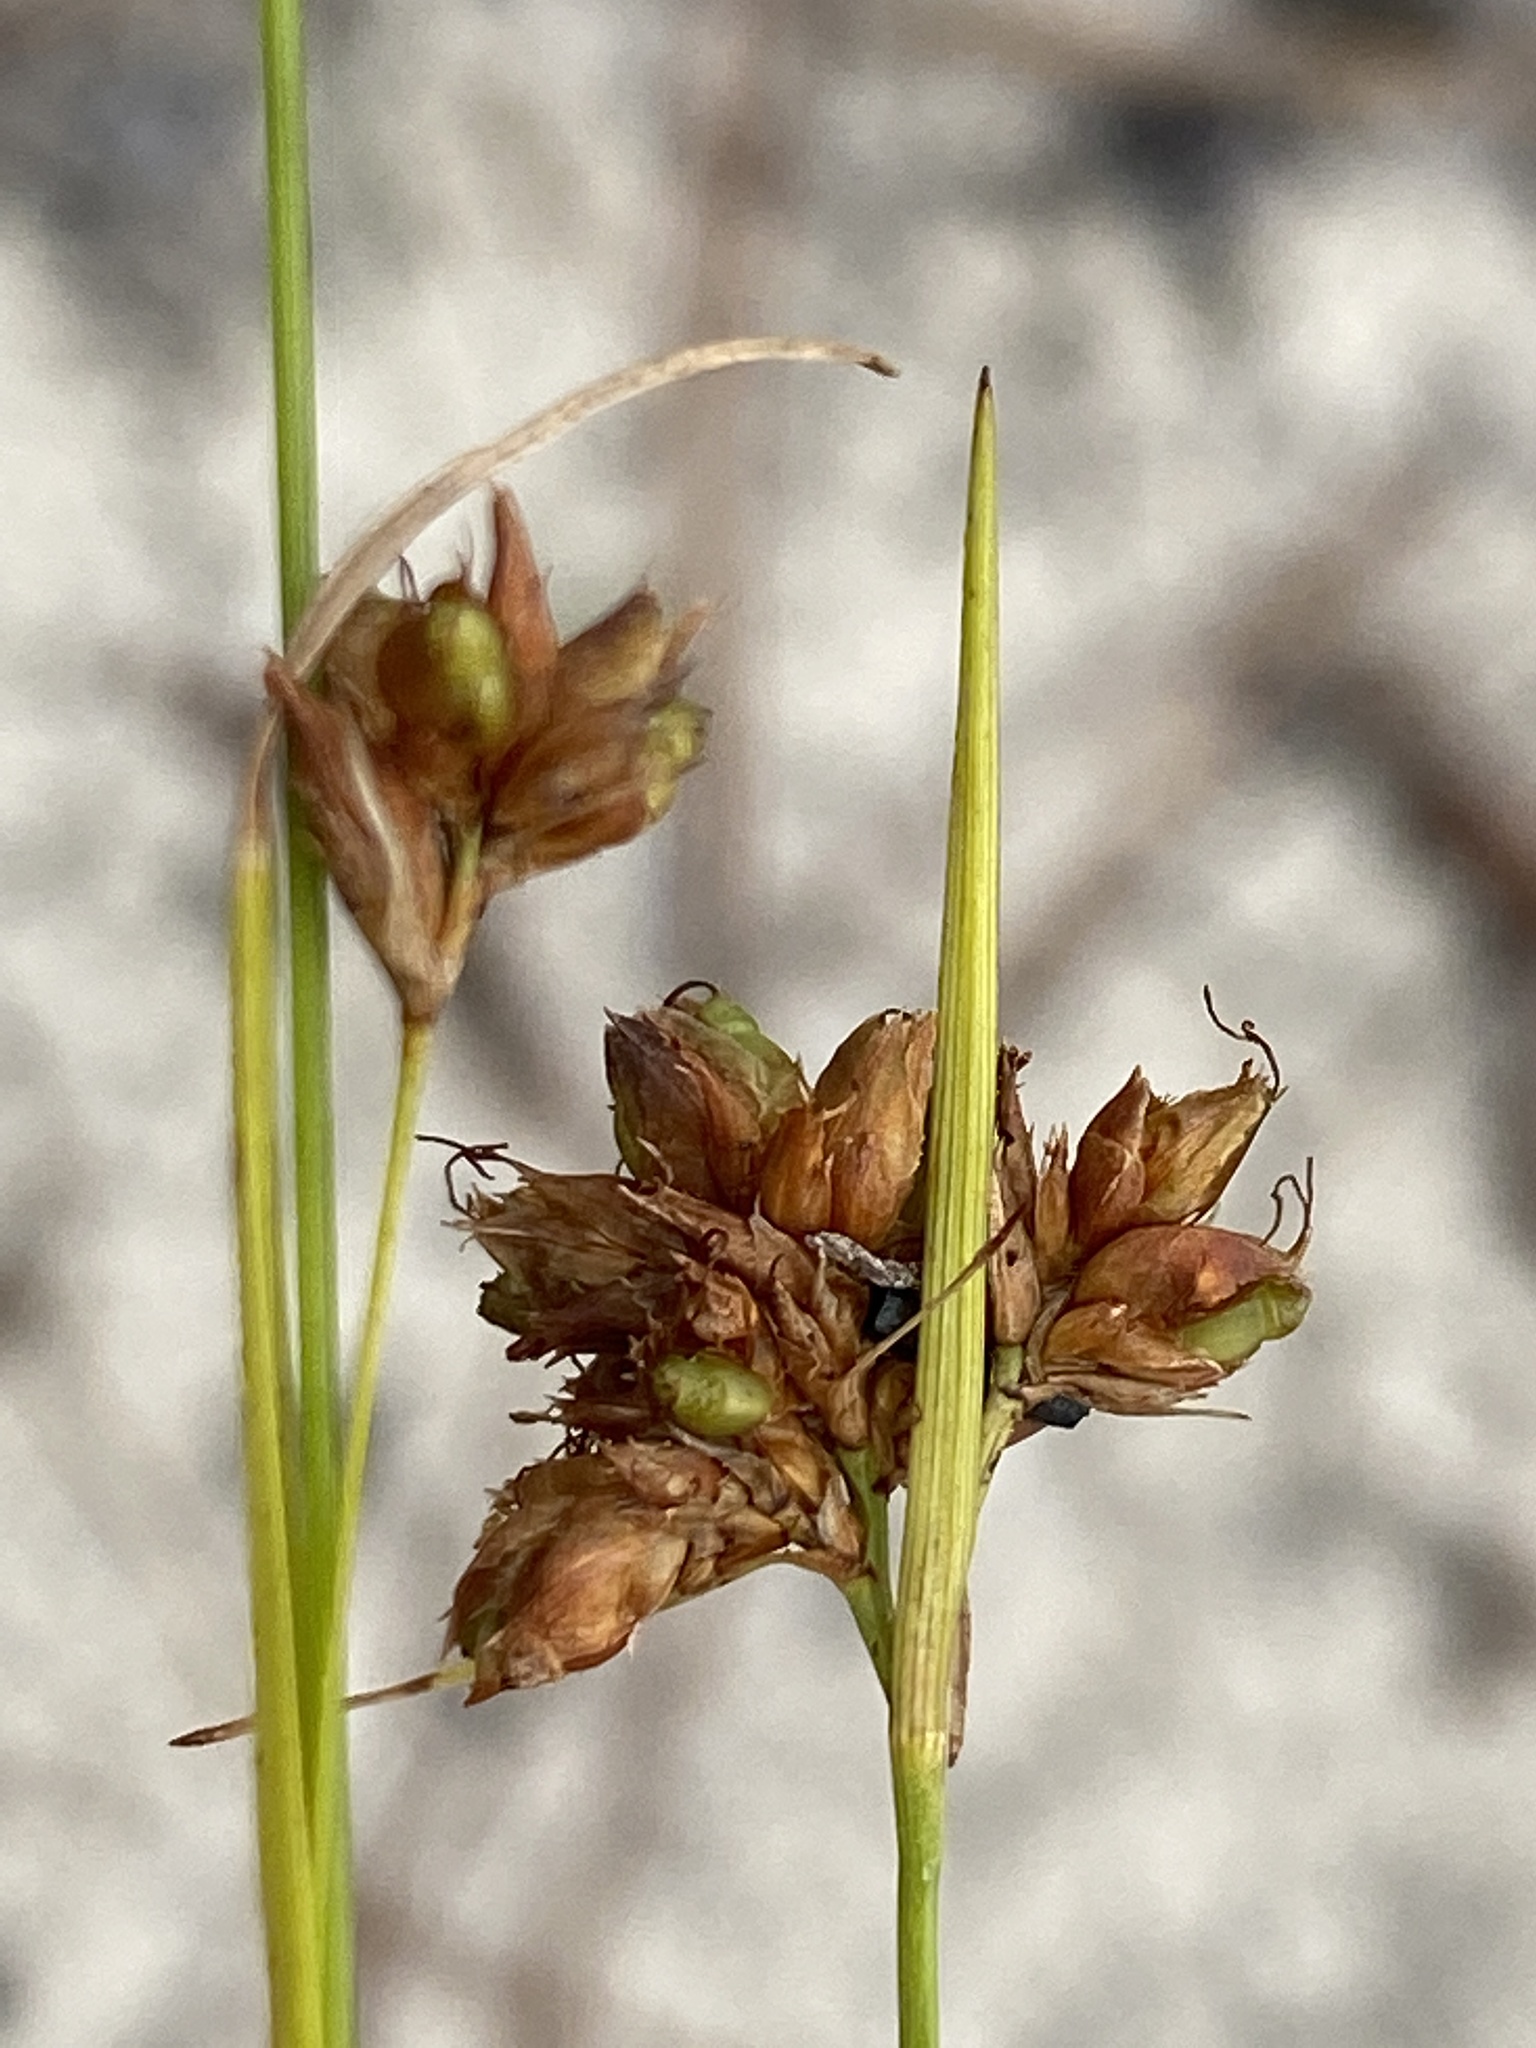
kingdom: Plantae
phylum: Tracheophyta
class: Liliopsida
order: Poales
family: Cyperaceae
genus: Rhynchospora
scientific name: Rhynchospora grayi
